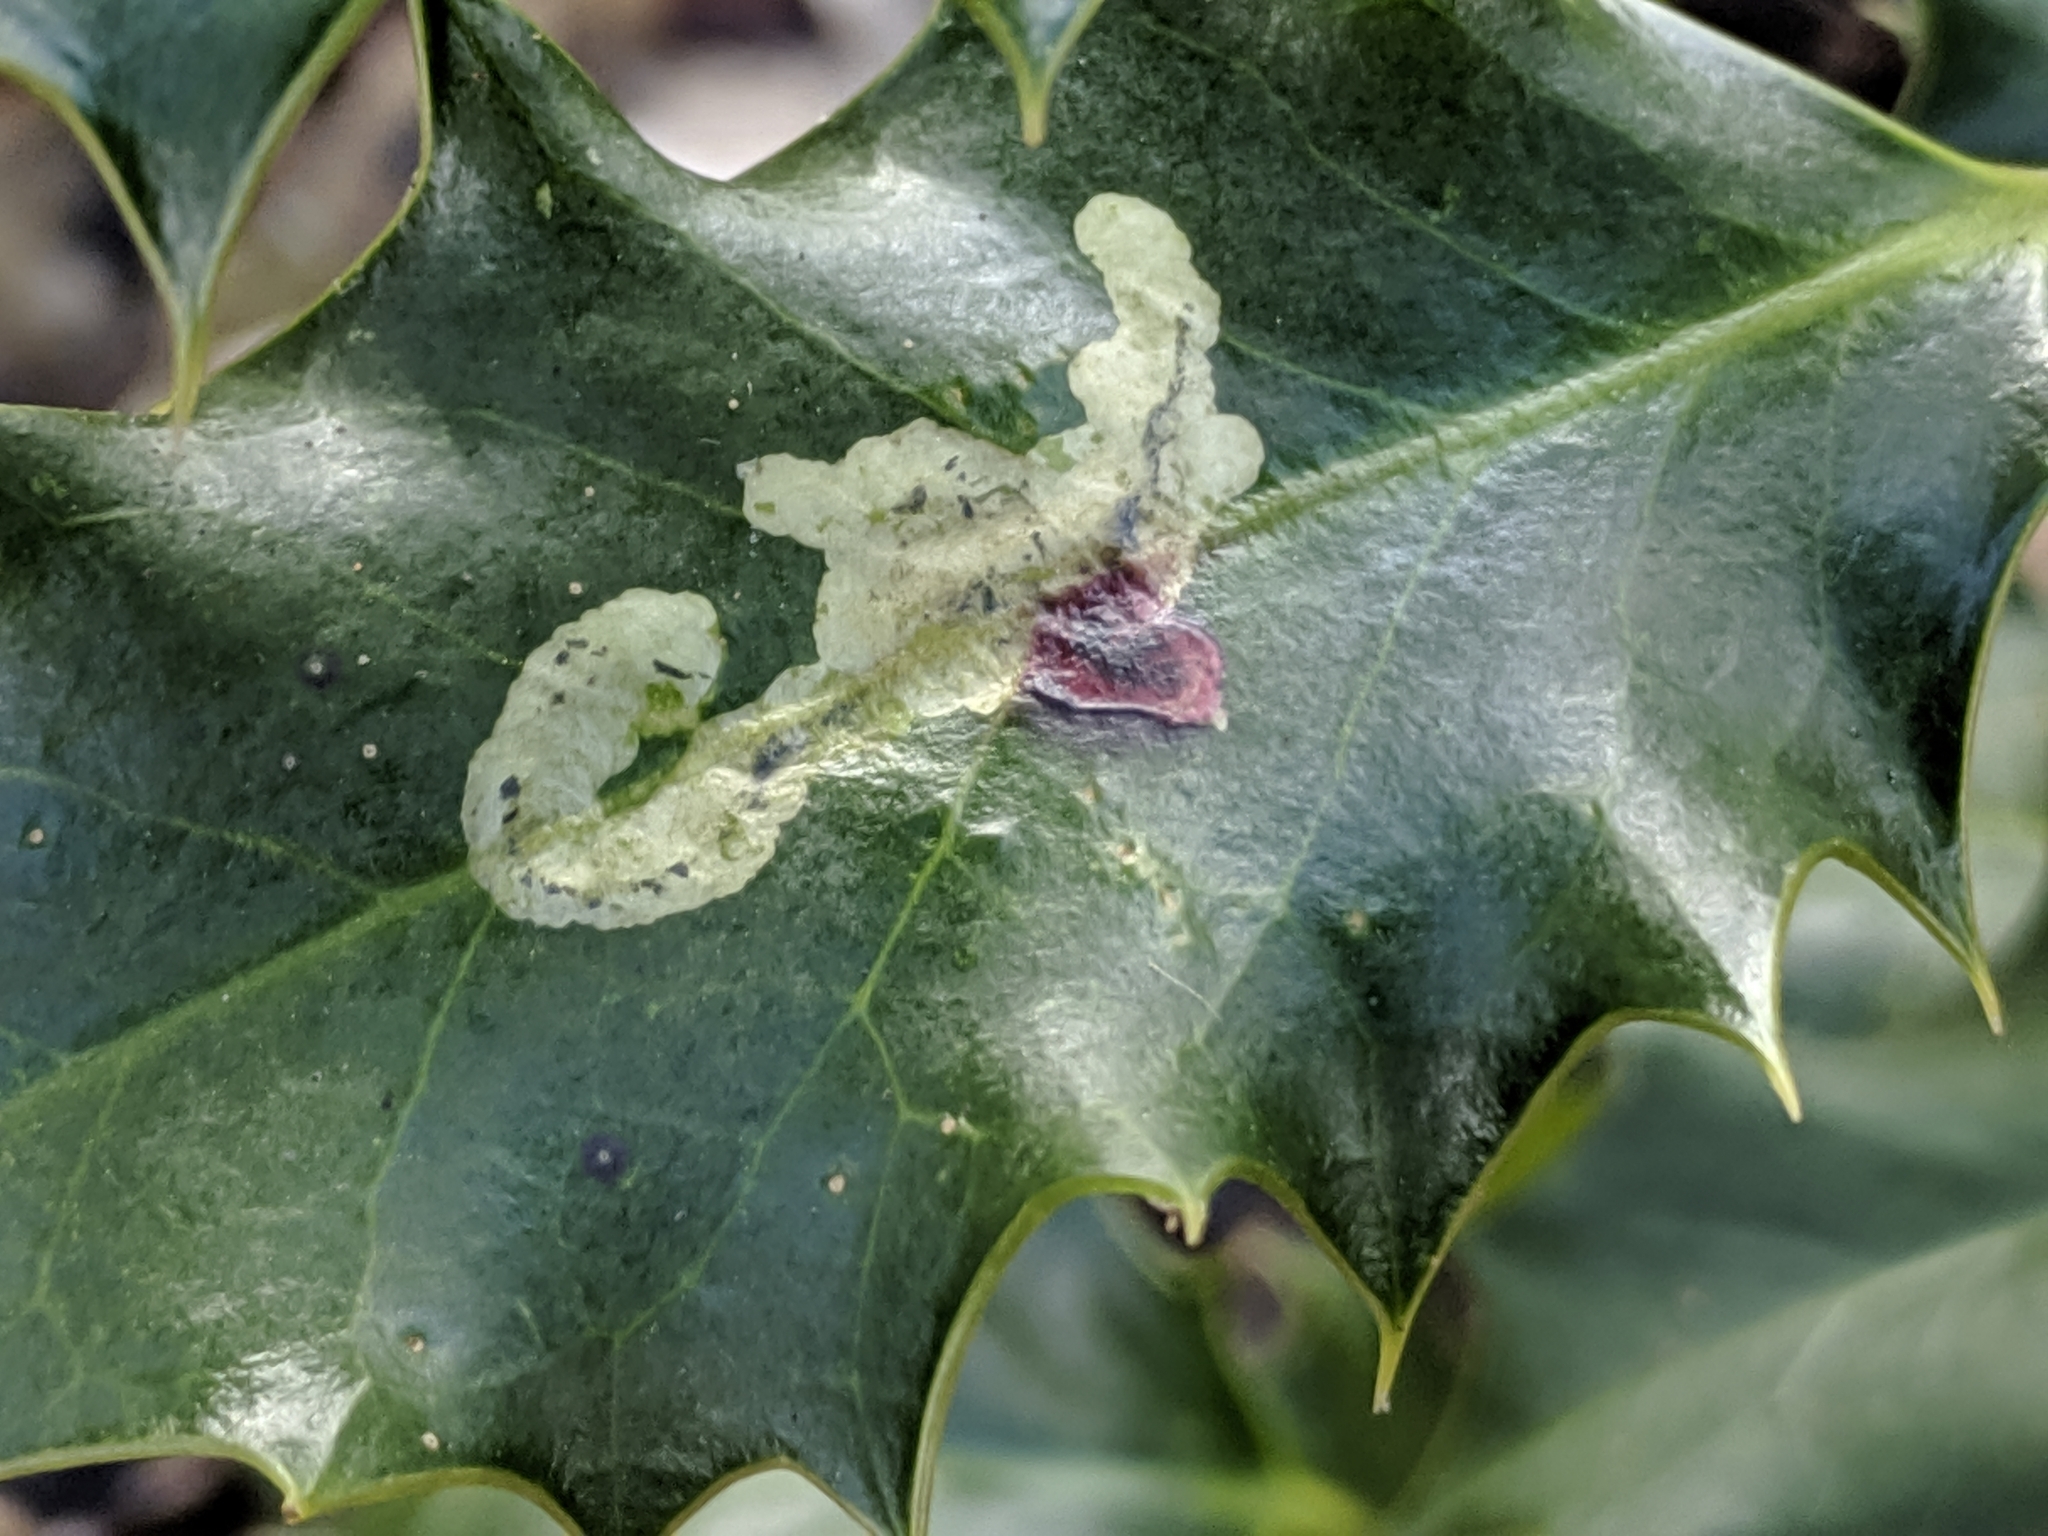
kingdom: Animalia
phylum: Arthropoda
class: Insecta
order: Diptera
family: Agromyzidae
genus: Phytomyza
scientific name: Phytomyza ilicis
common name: Holly leafminer
